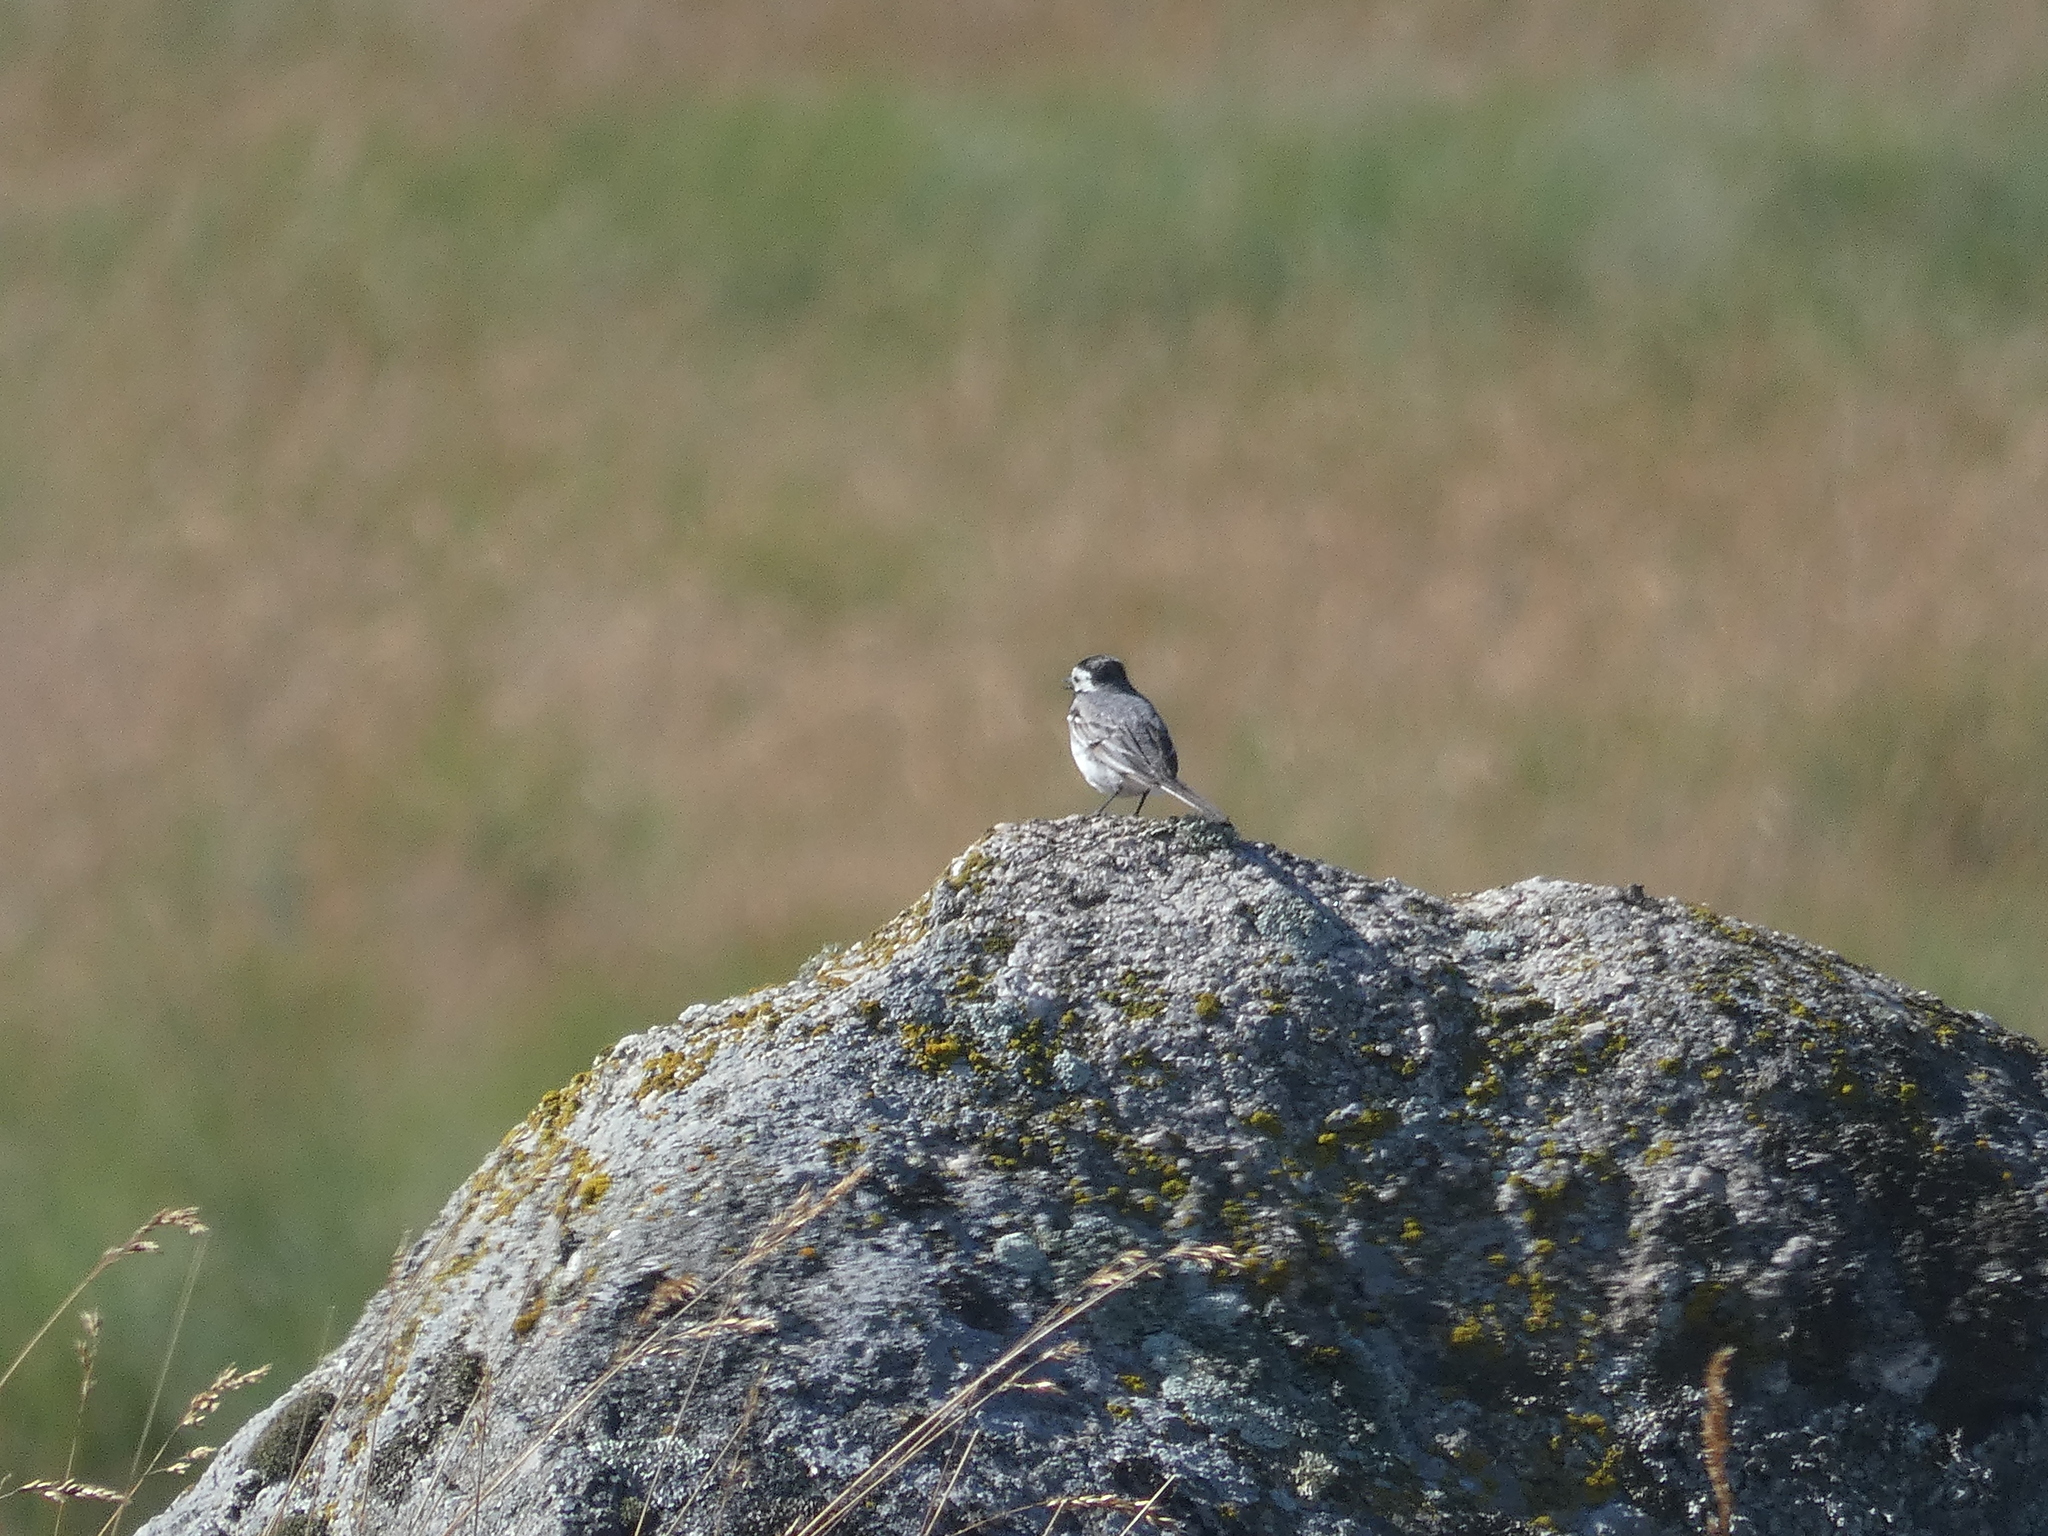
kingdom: Animalia
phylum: Chordata
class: Aves
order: Passeriformes
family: Motacillidae
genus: Motacilla
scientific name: Motacilla alba
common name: White wagtail
